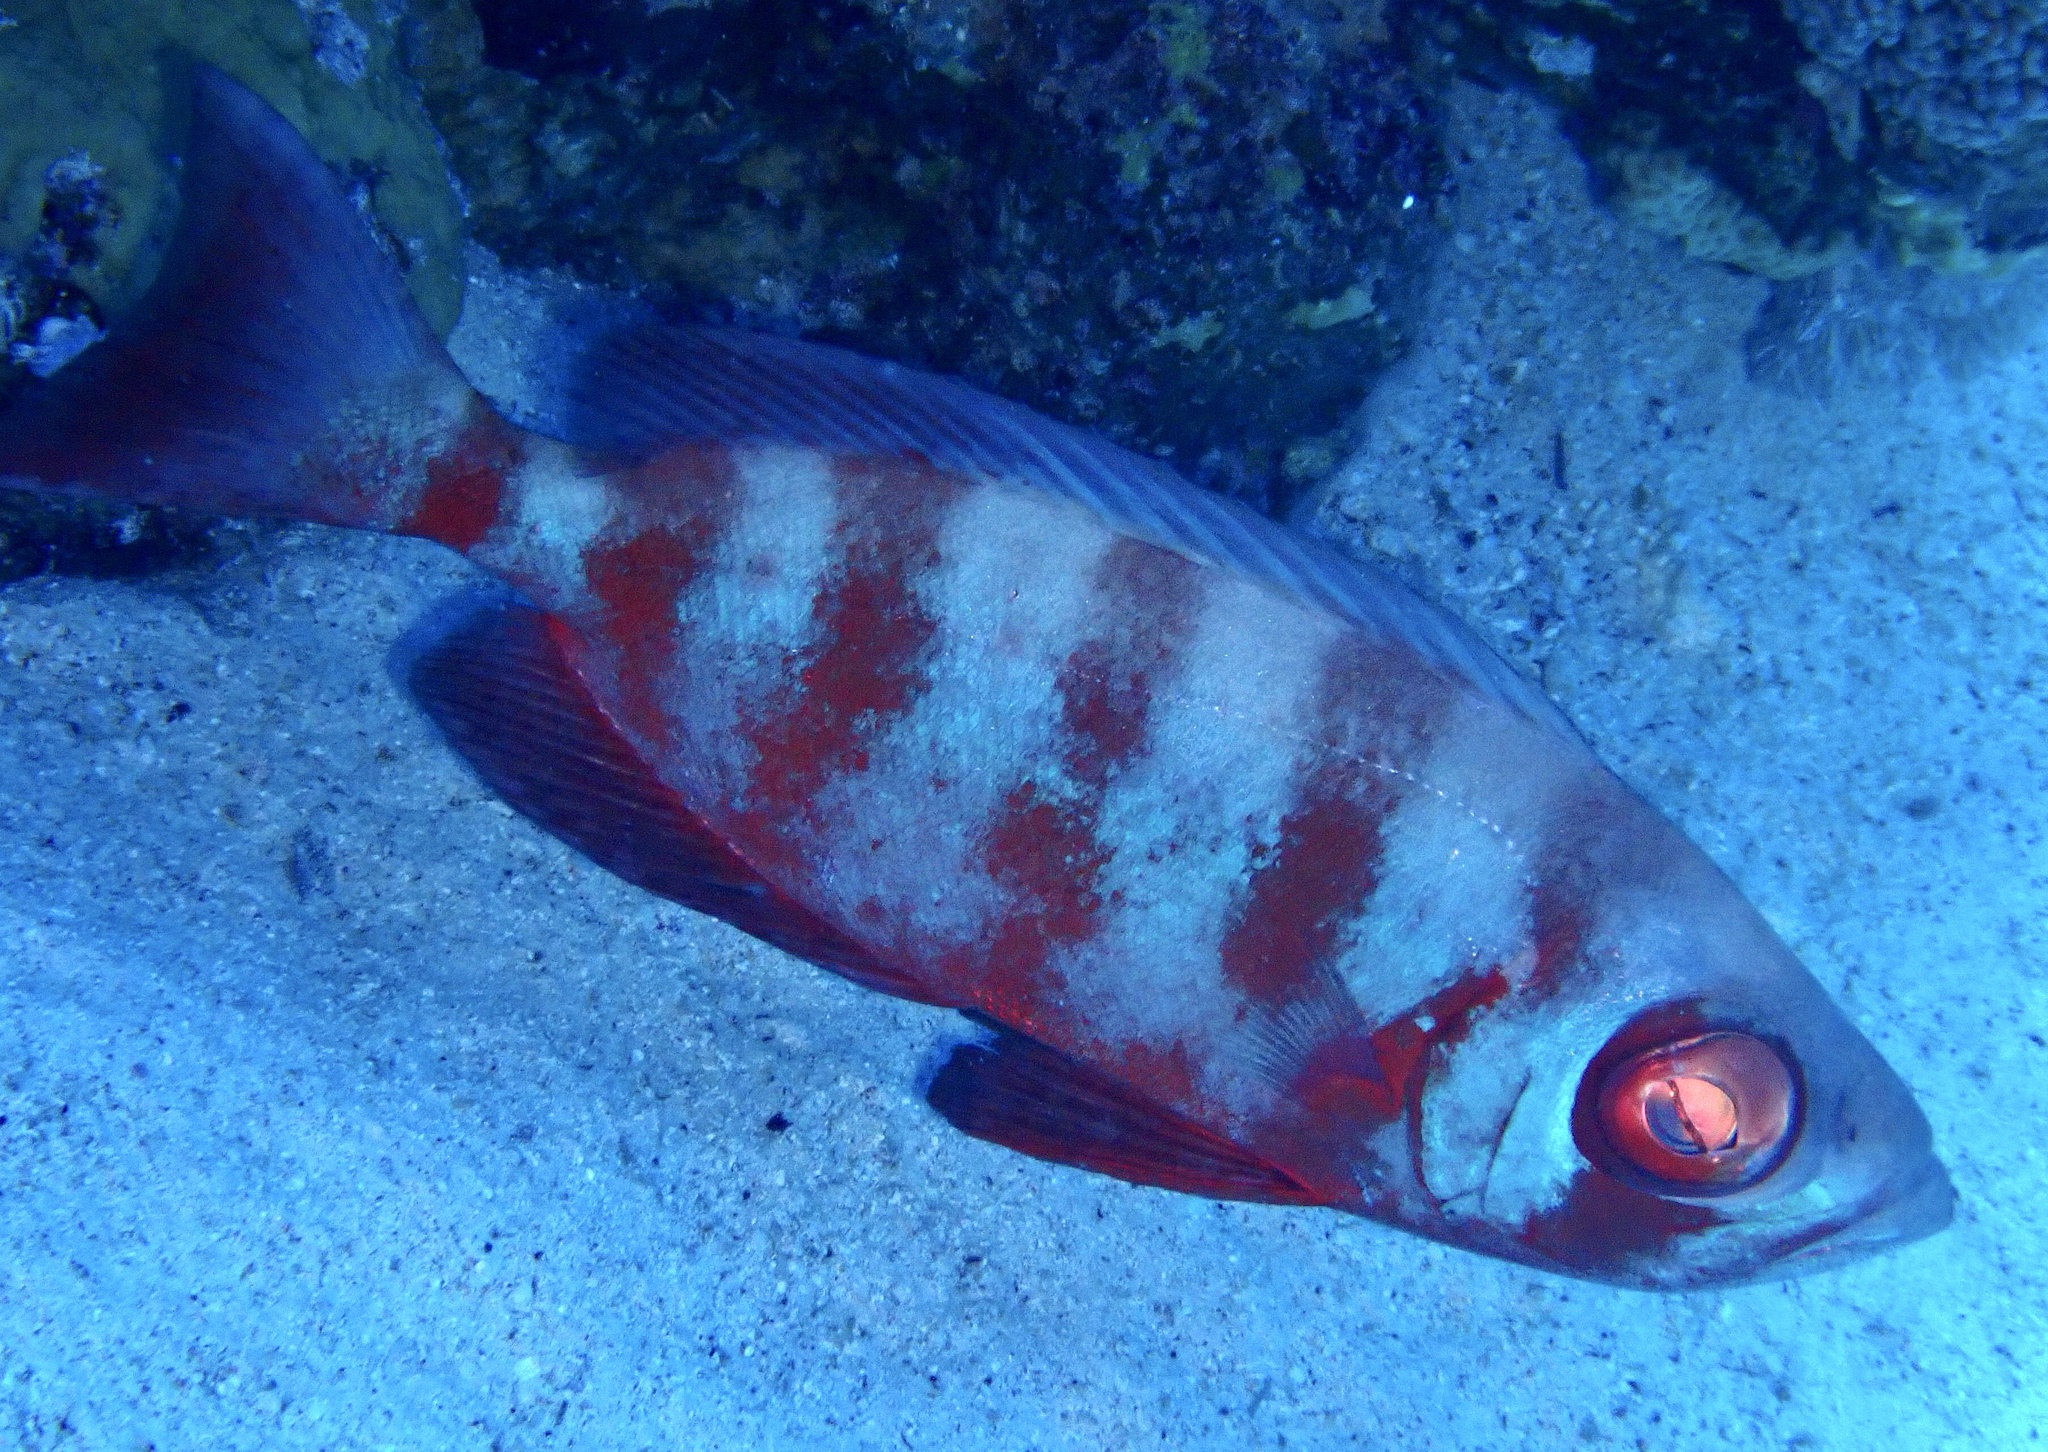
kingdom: Animalia
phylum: Chordata
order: Perciformes
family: Priacanthidae
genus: Priacanthus
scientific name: Priacanthus hamrur
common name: Moontail bullseye
